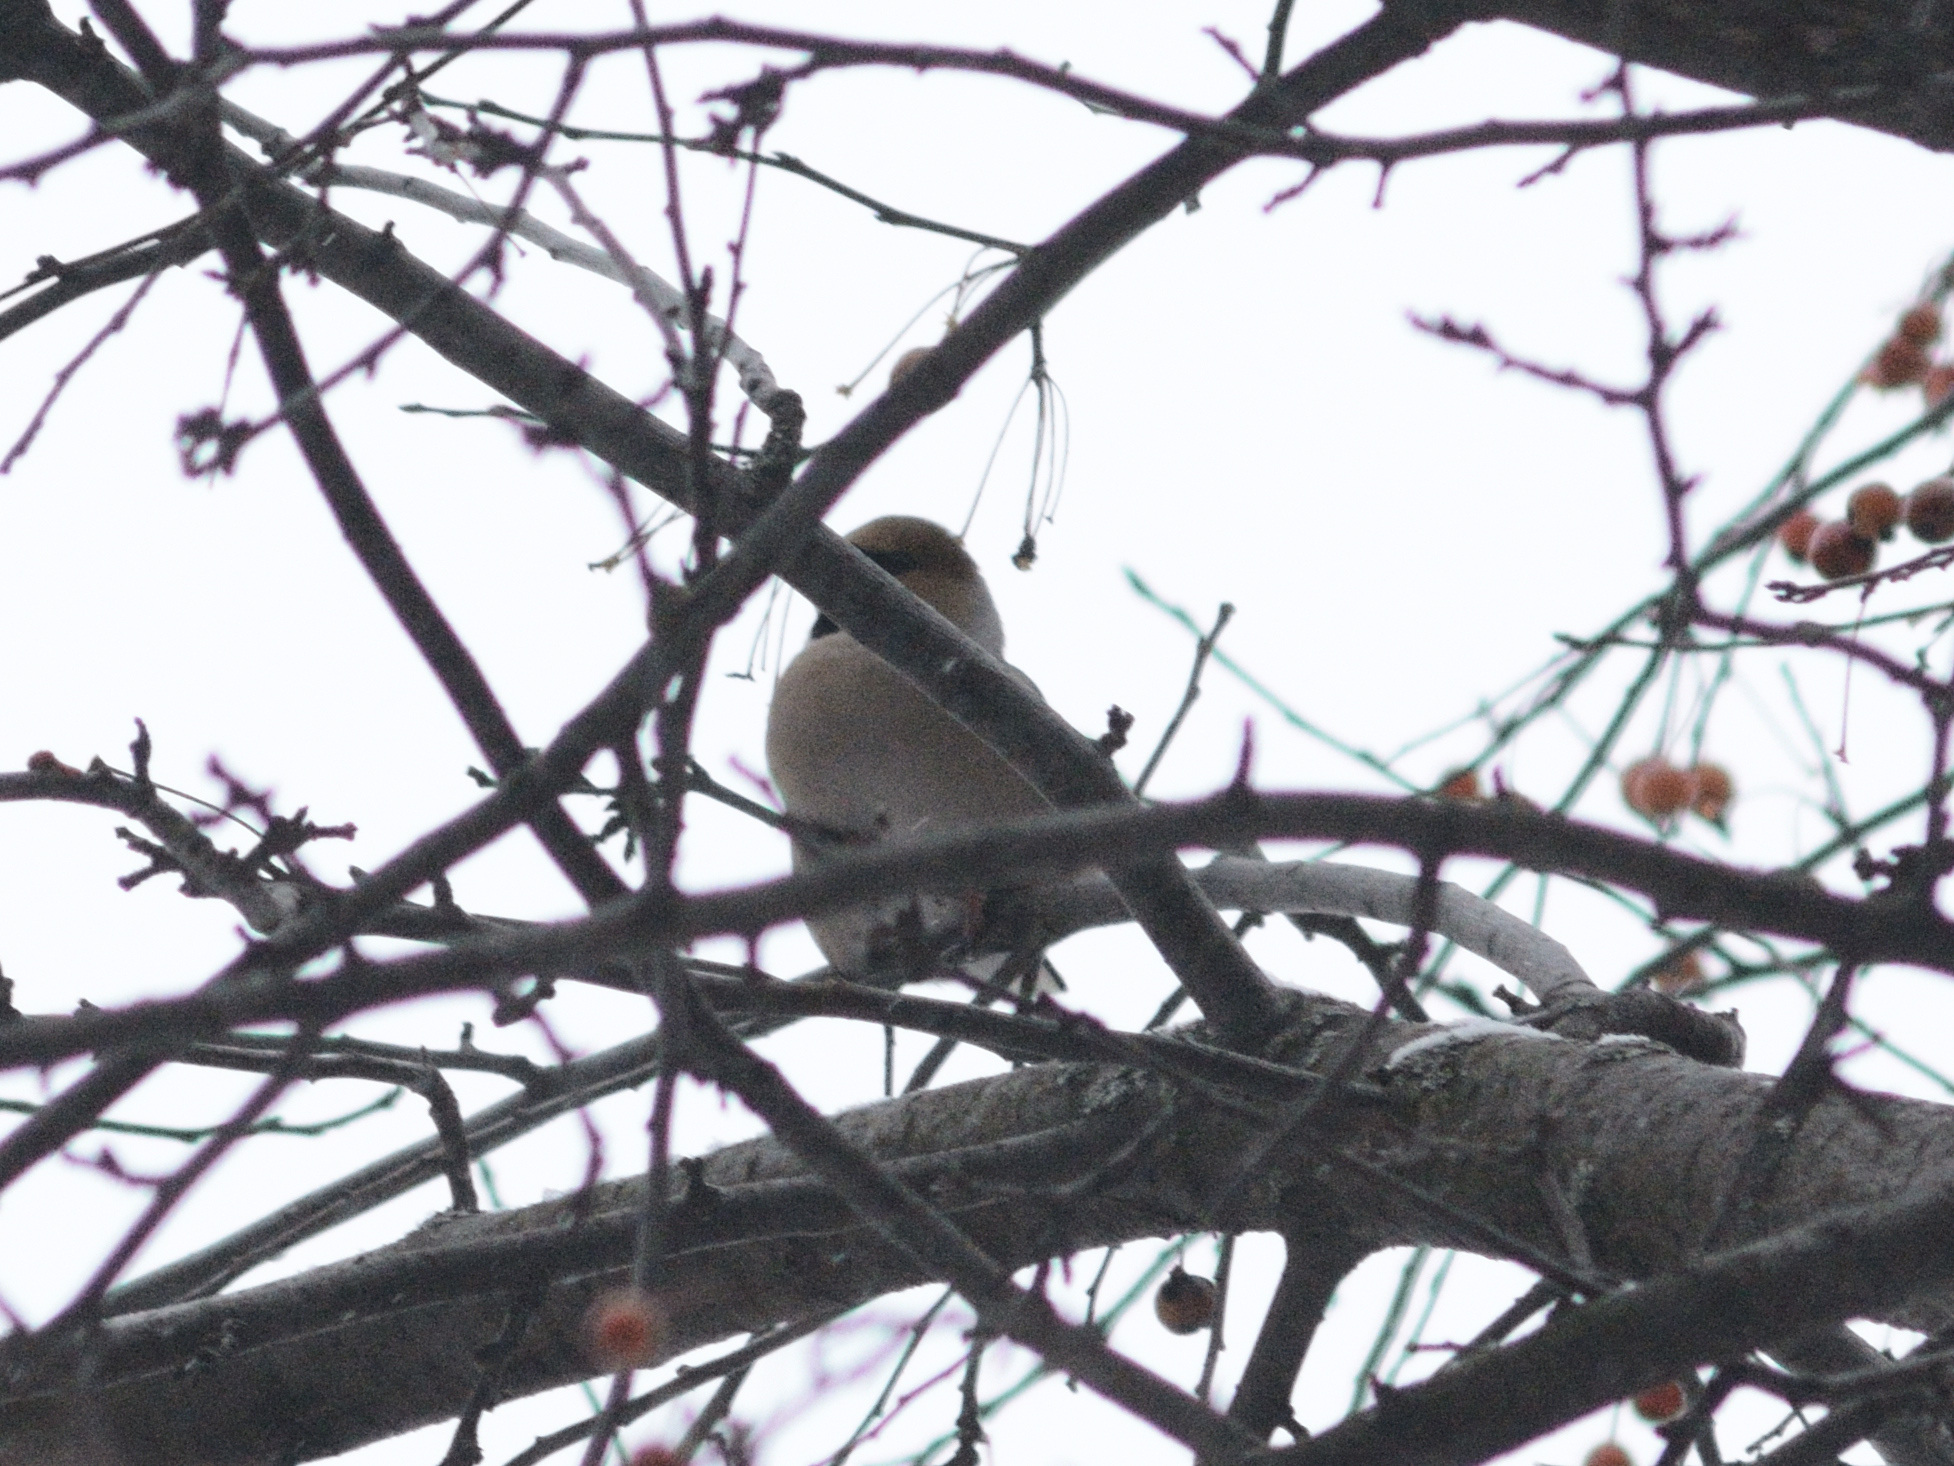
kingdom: Animalia
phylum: Chordata
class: Aves
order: Passeriformes
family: Fringillidae
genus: Coccothraustes
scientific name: Coccothraustes coccothraustes
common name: Hawfinch
